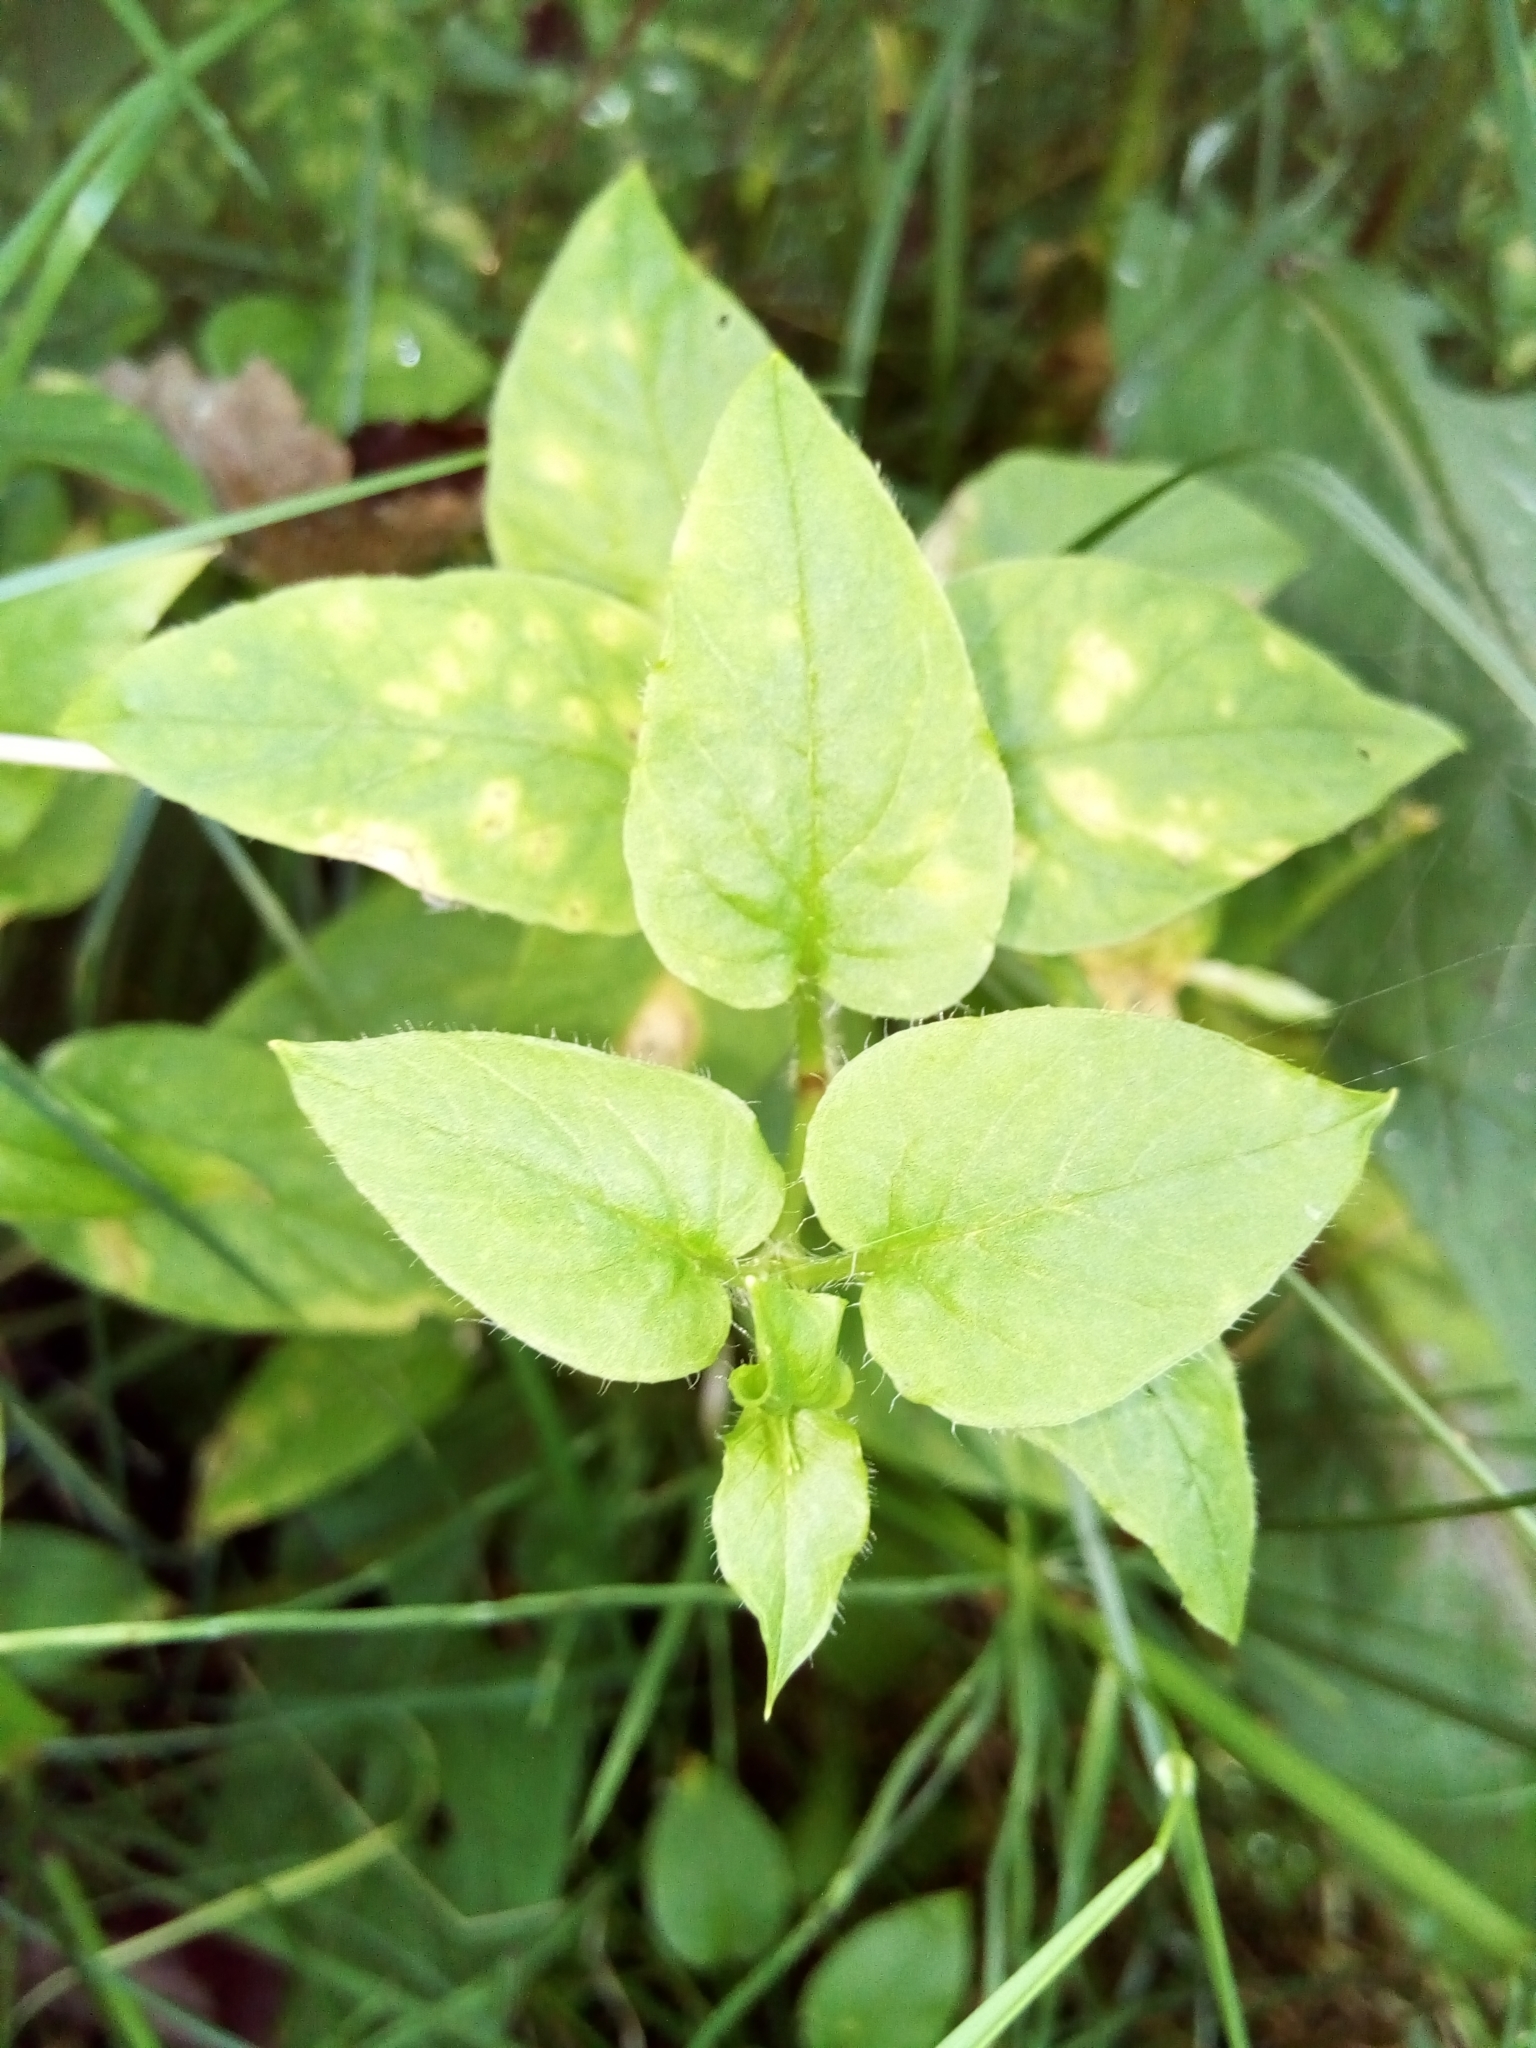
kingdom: Plantae
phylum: Tracheophyta
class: Magnoliopsida
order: Caryophyllales
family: Caryophyllaceae
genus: Stellaria
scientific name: Stellaria nemorum
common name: Wood stitchwort
